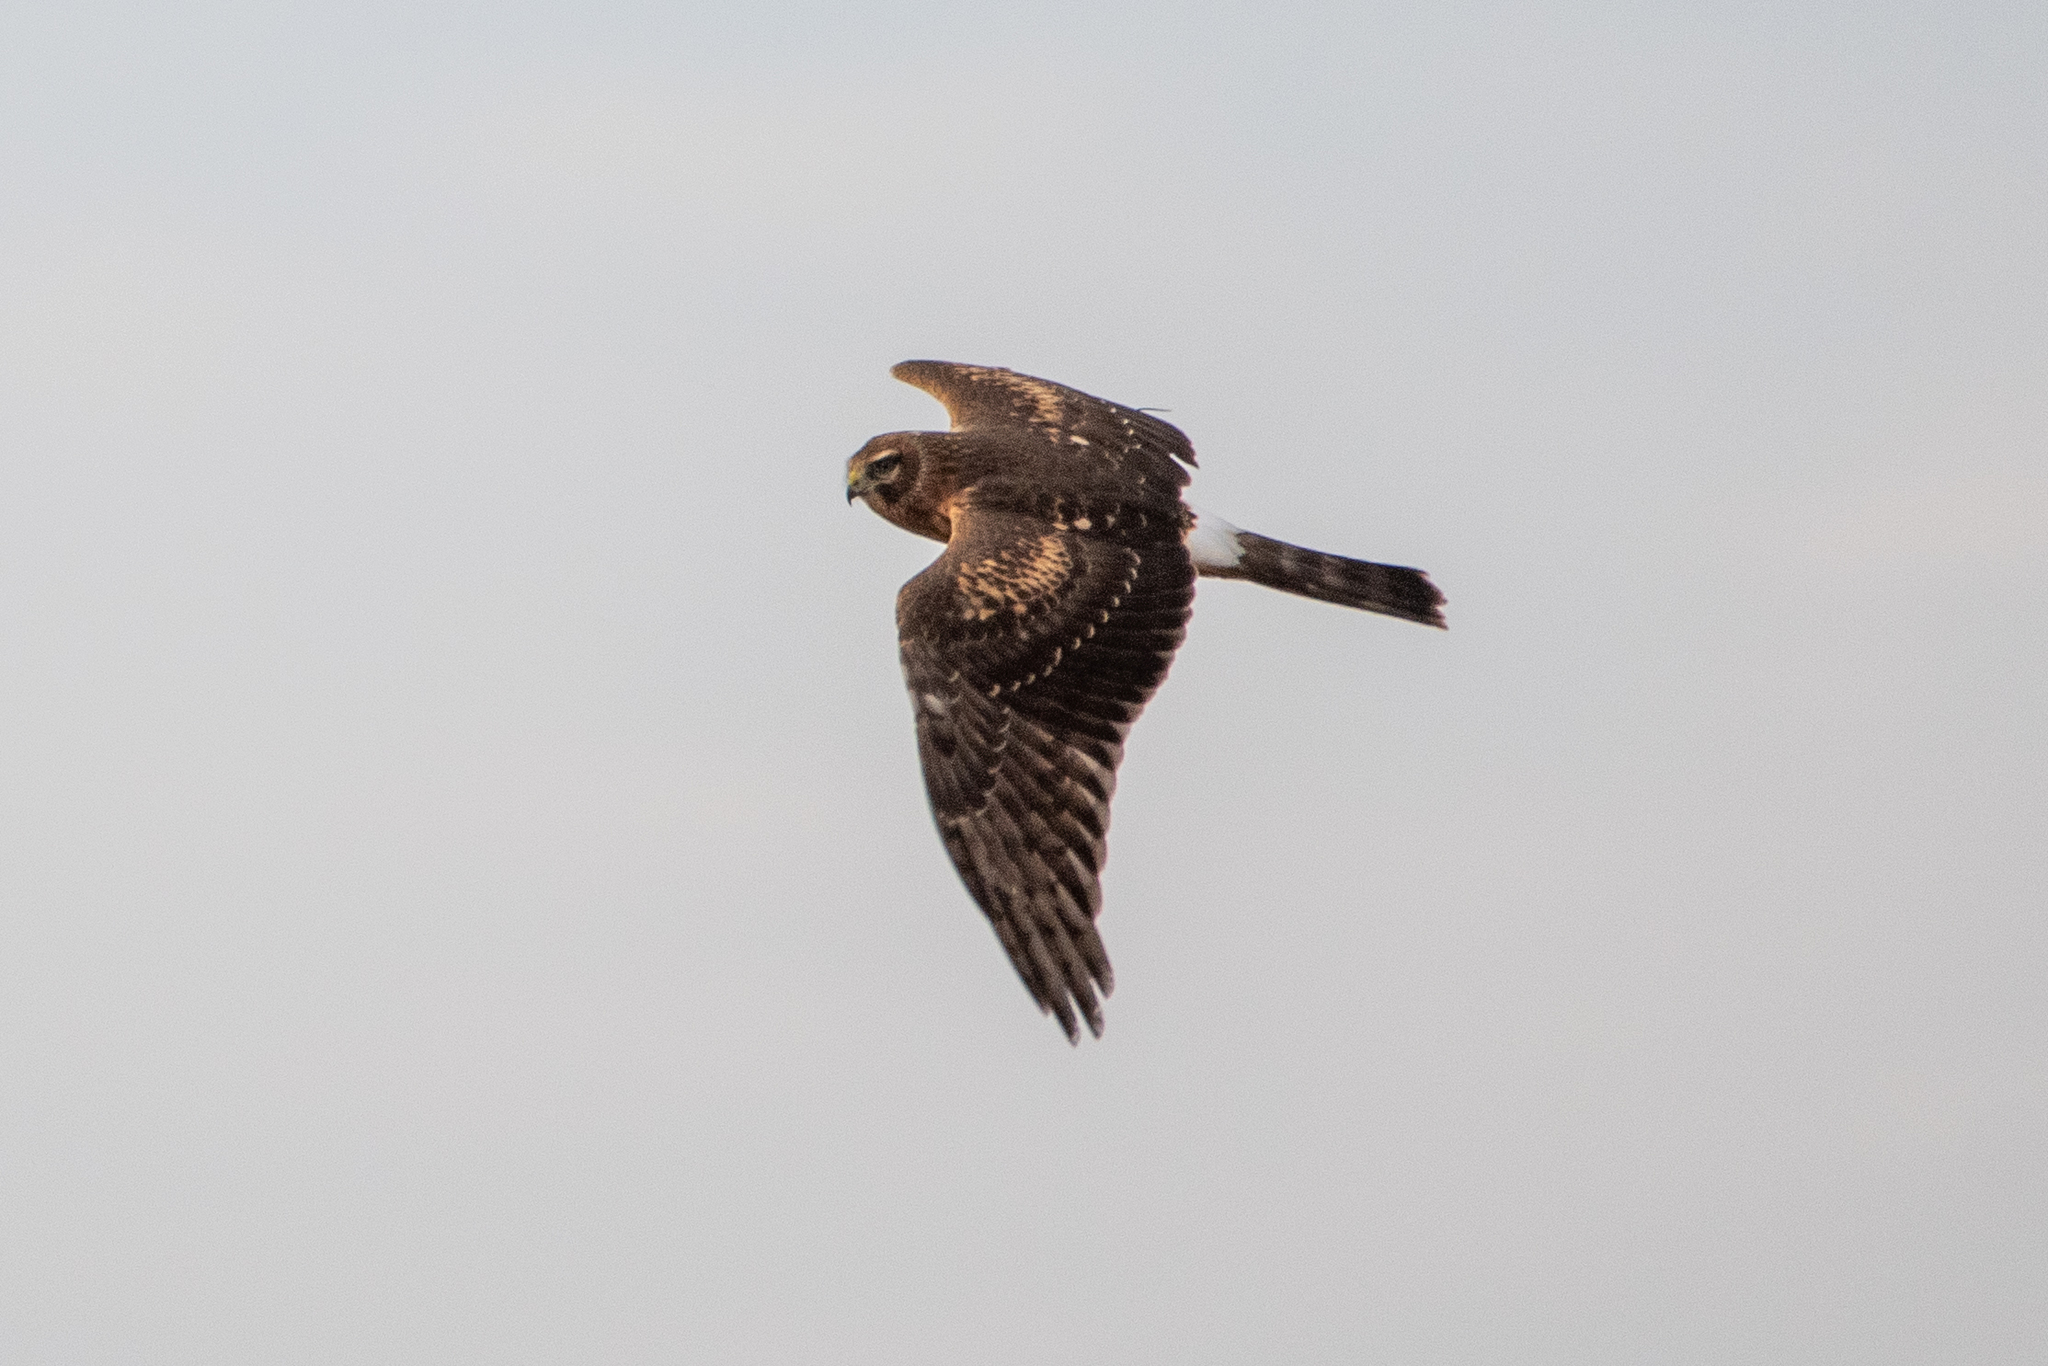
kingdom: Animalia
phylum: Chordata
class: Aves
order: Accipitriformes
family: Accipitridae
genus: Circus
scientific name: Circus cyaneus
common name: Hen harrier
